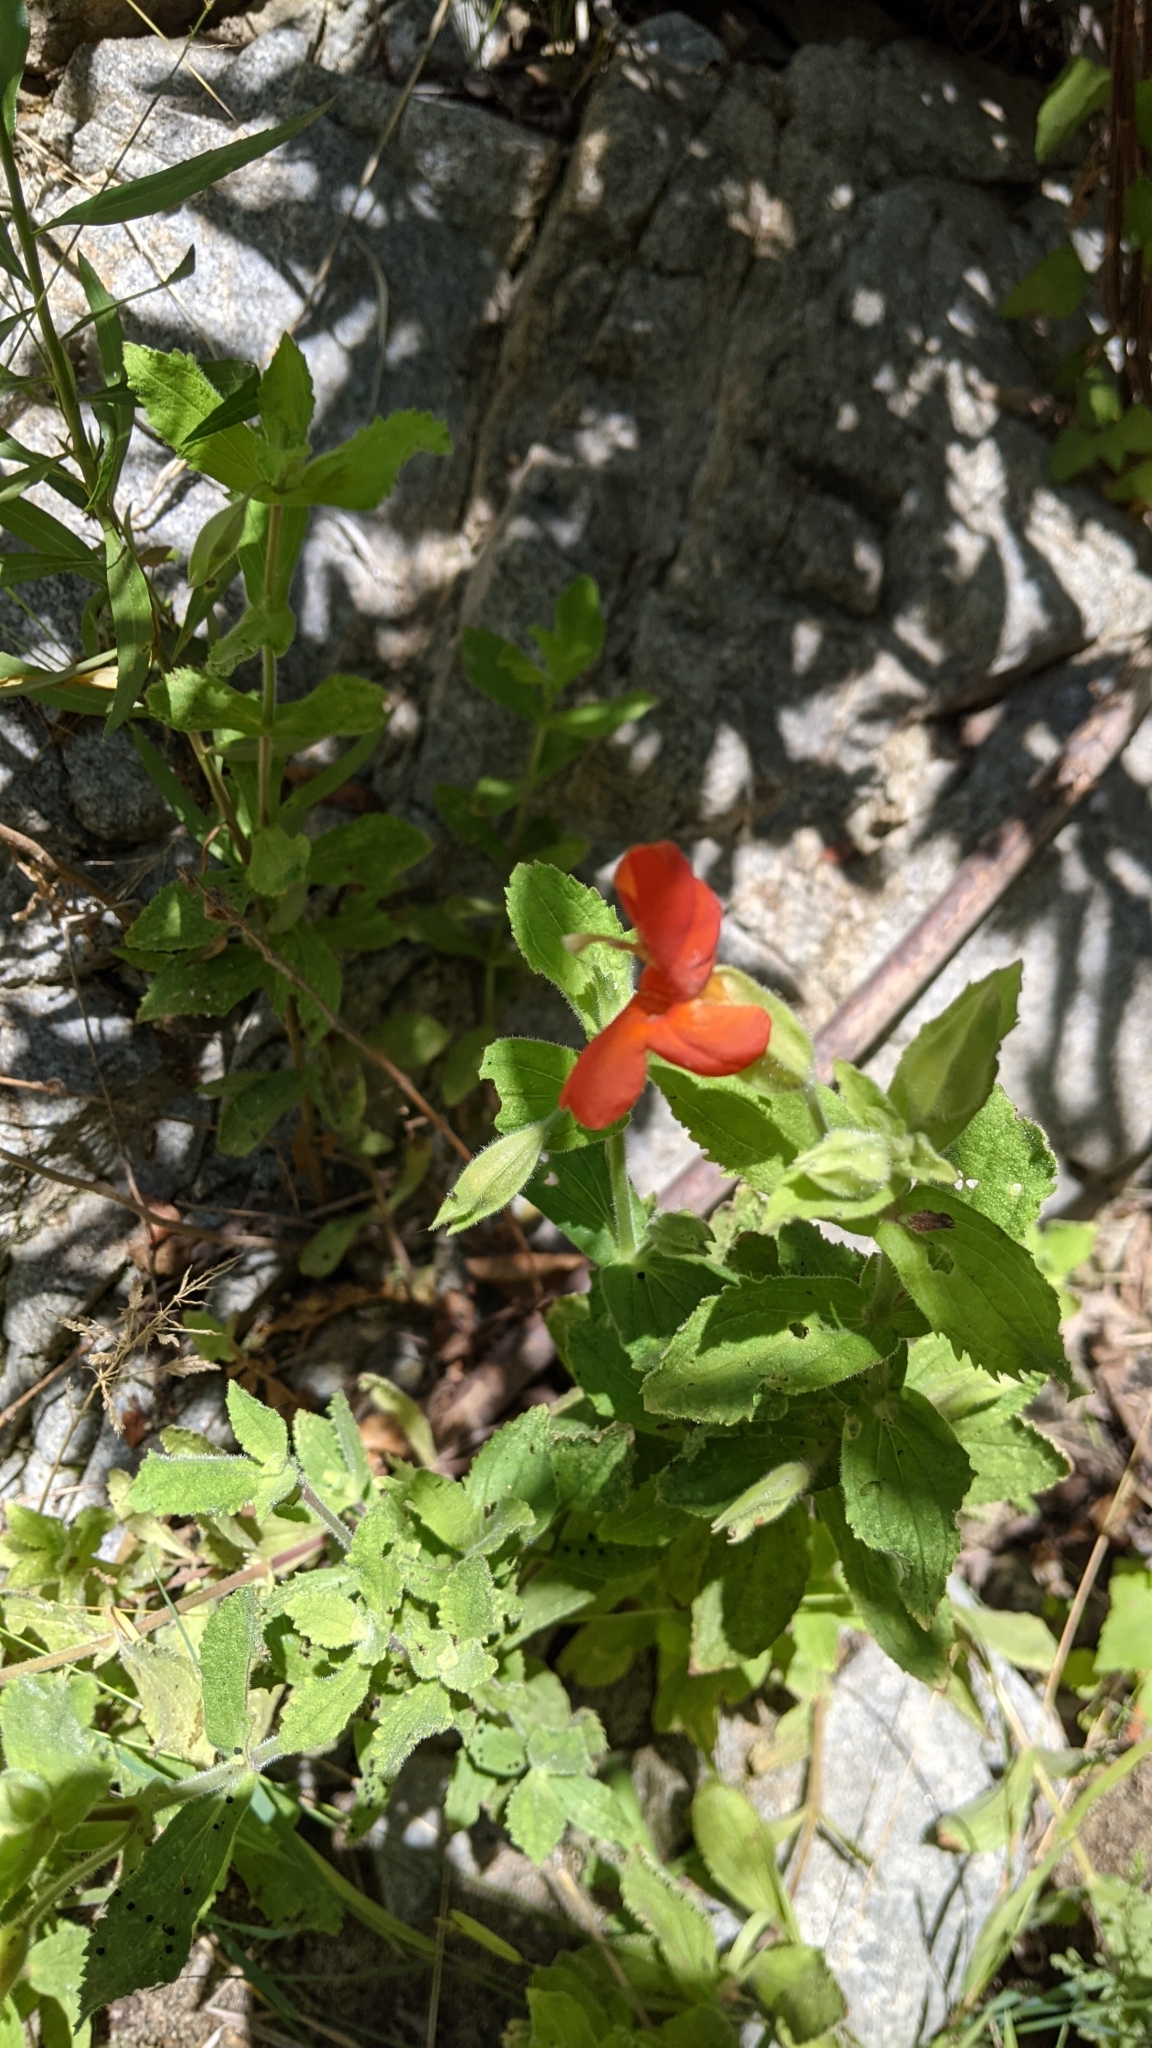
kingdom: Plantae
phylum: Tracheophyta
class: Magnoliopsida
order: Lamiales
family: Phrymaceae
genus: Erythranthe
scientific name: Erythranthe cardinalis
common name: Scarlet monkey-flower
